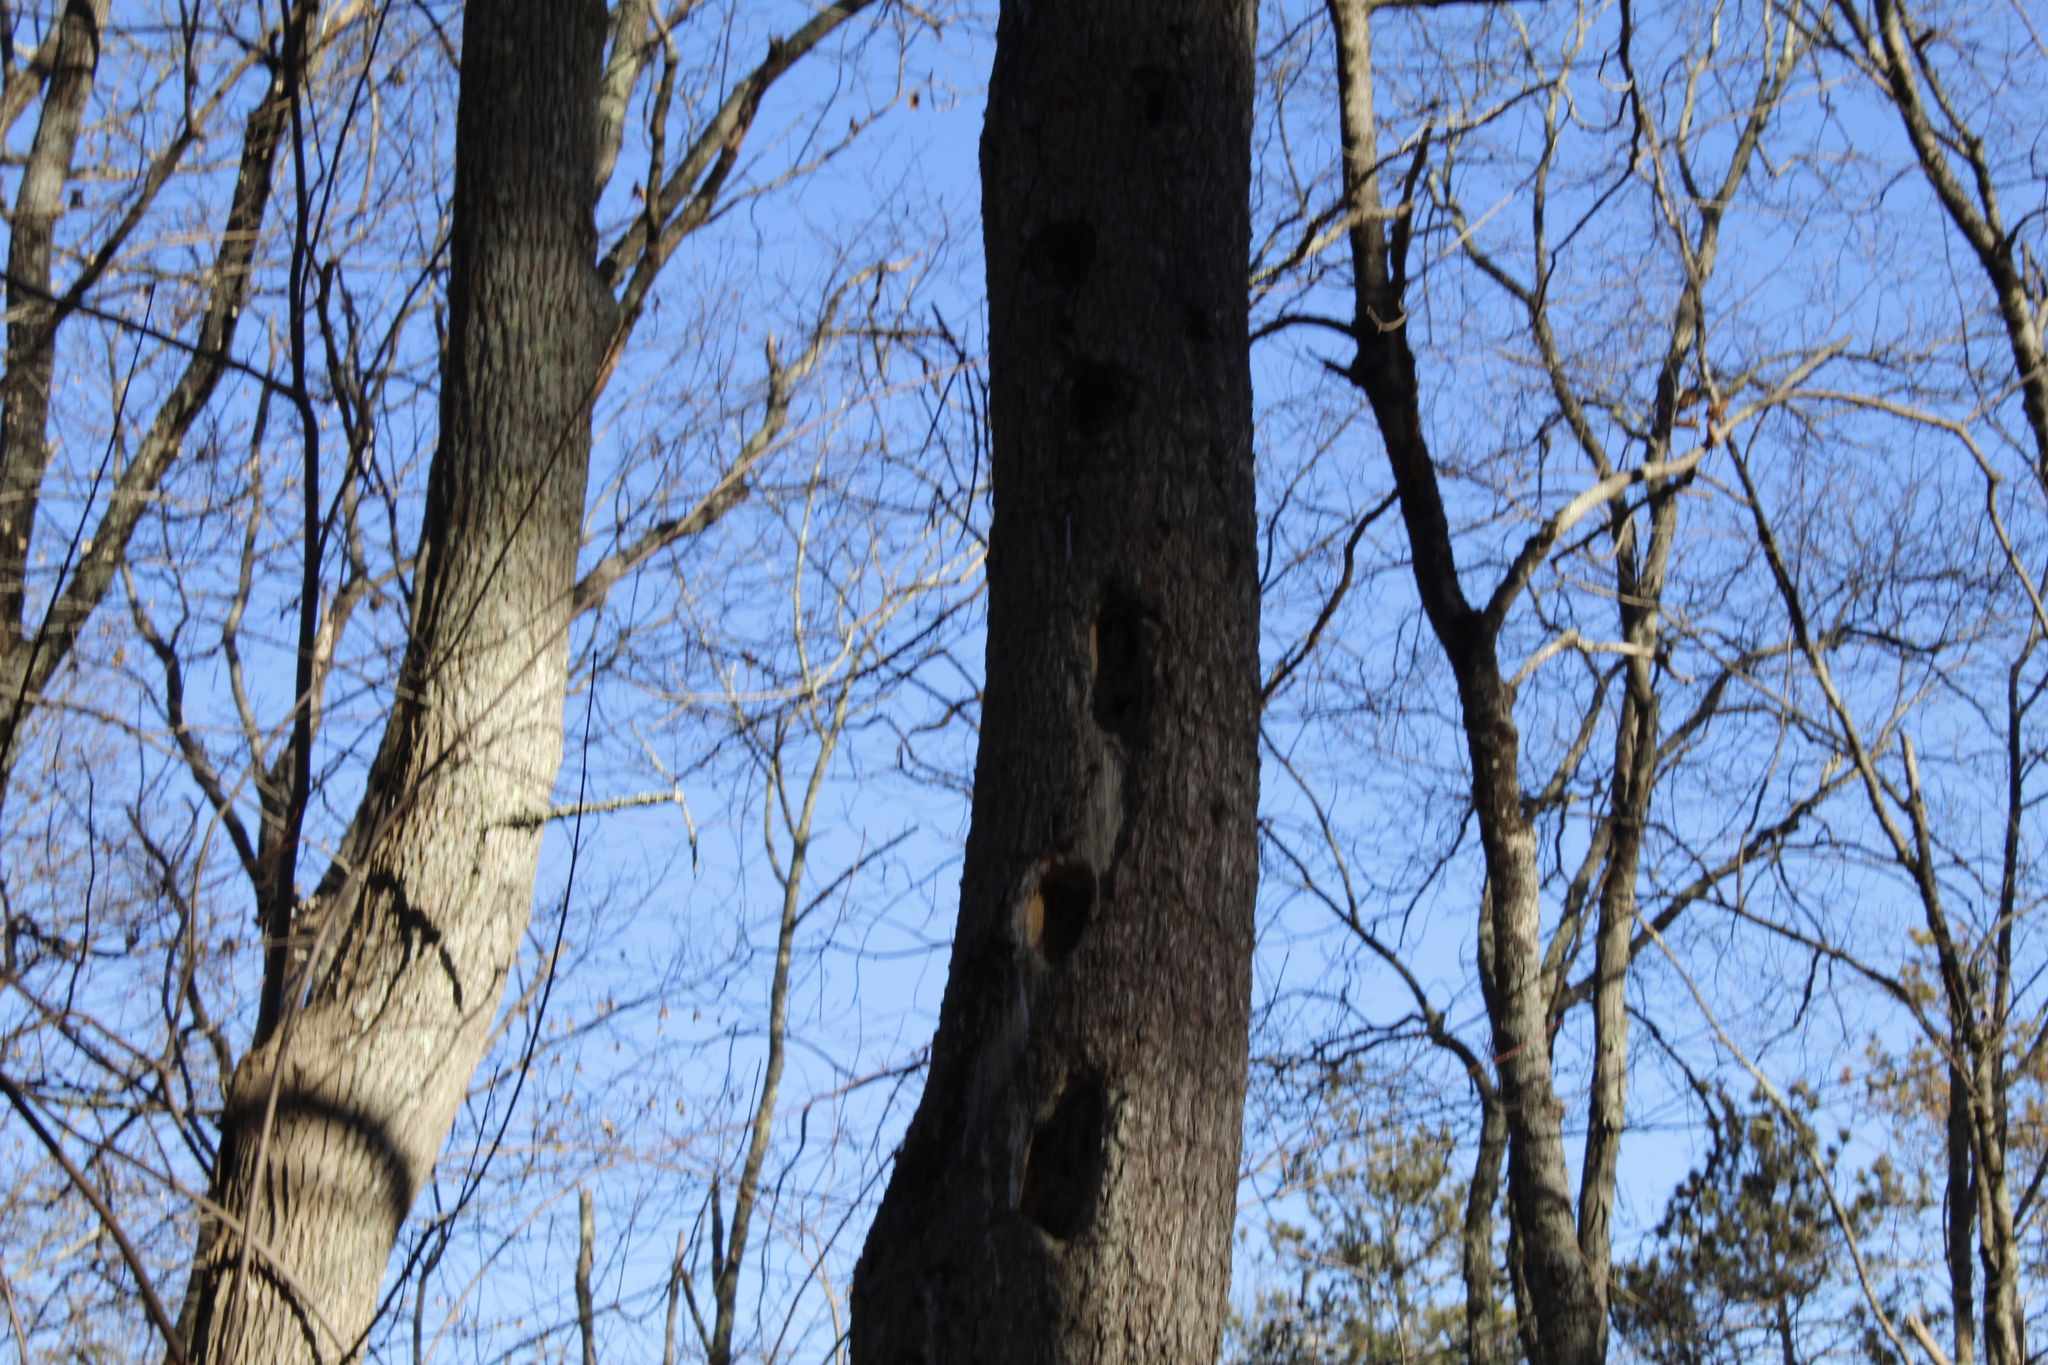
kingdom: Animalia
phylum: Chordata
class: Aves
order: Piciformes
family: Picidae
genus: Dryocopus
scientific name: Dryocopus pileatus
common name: Pileated woodpecker
